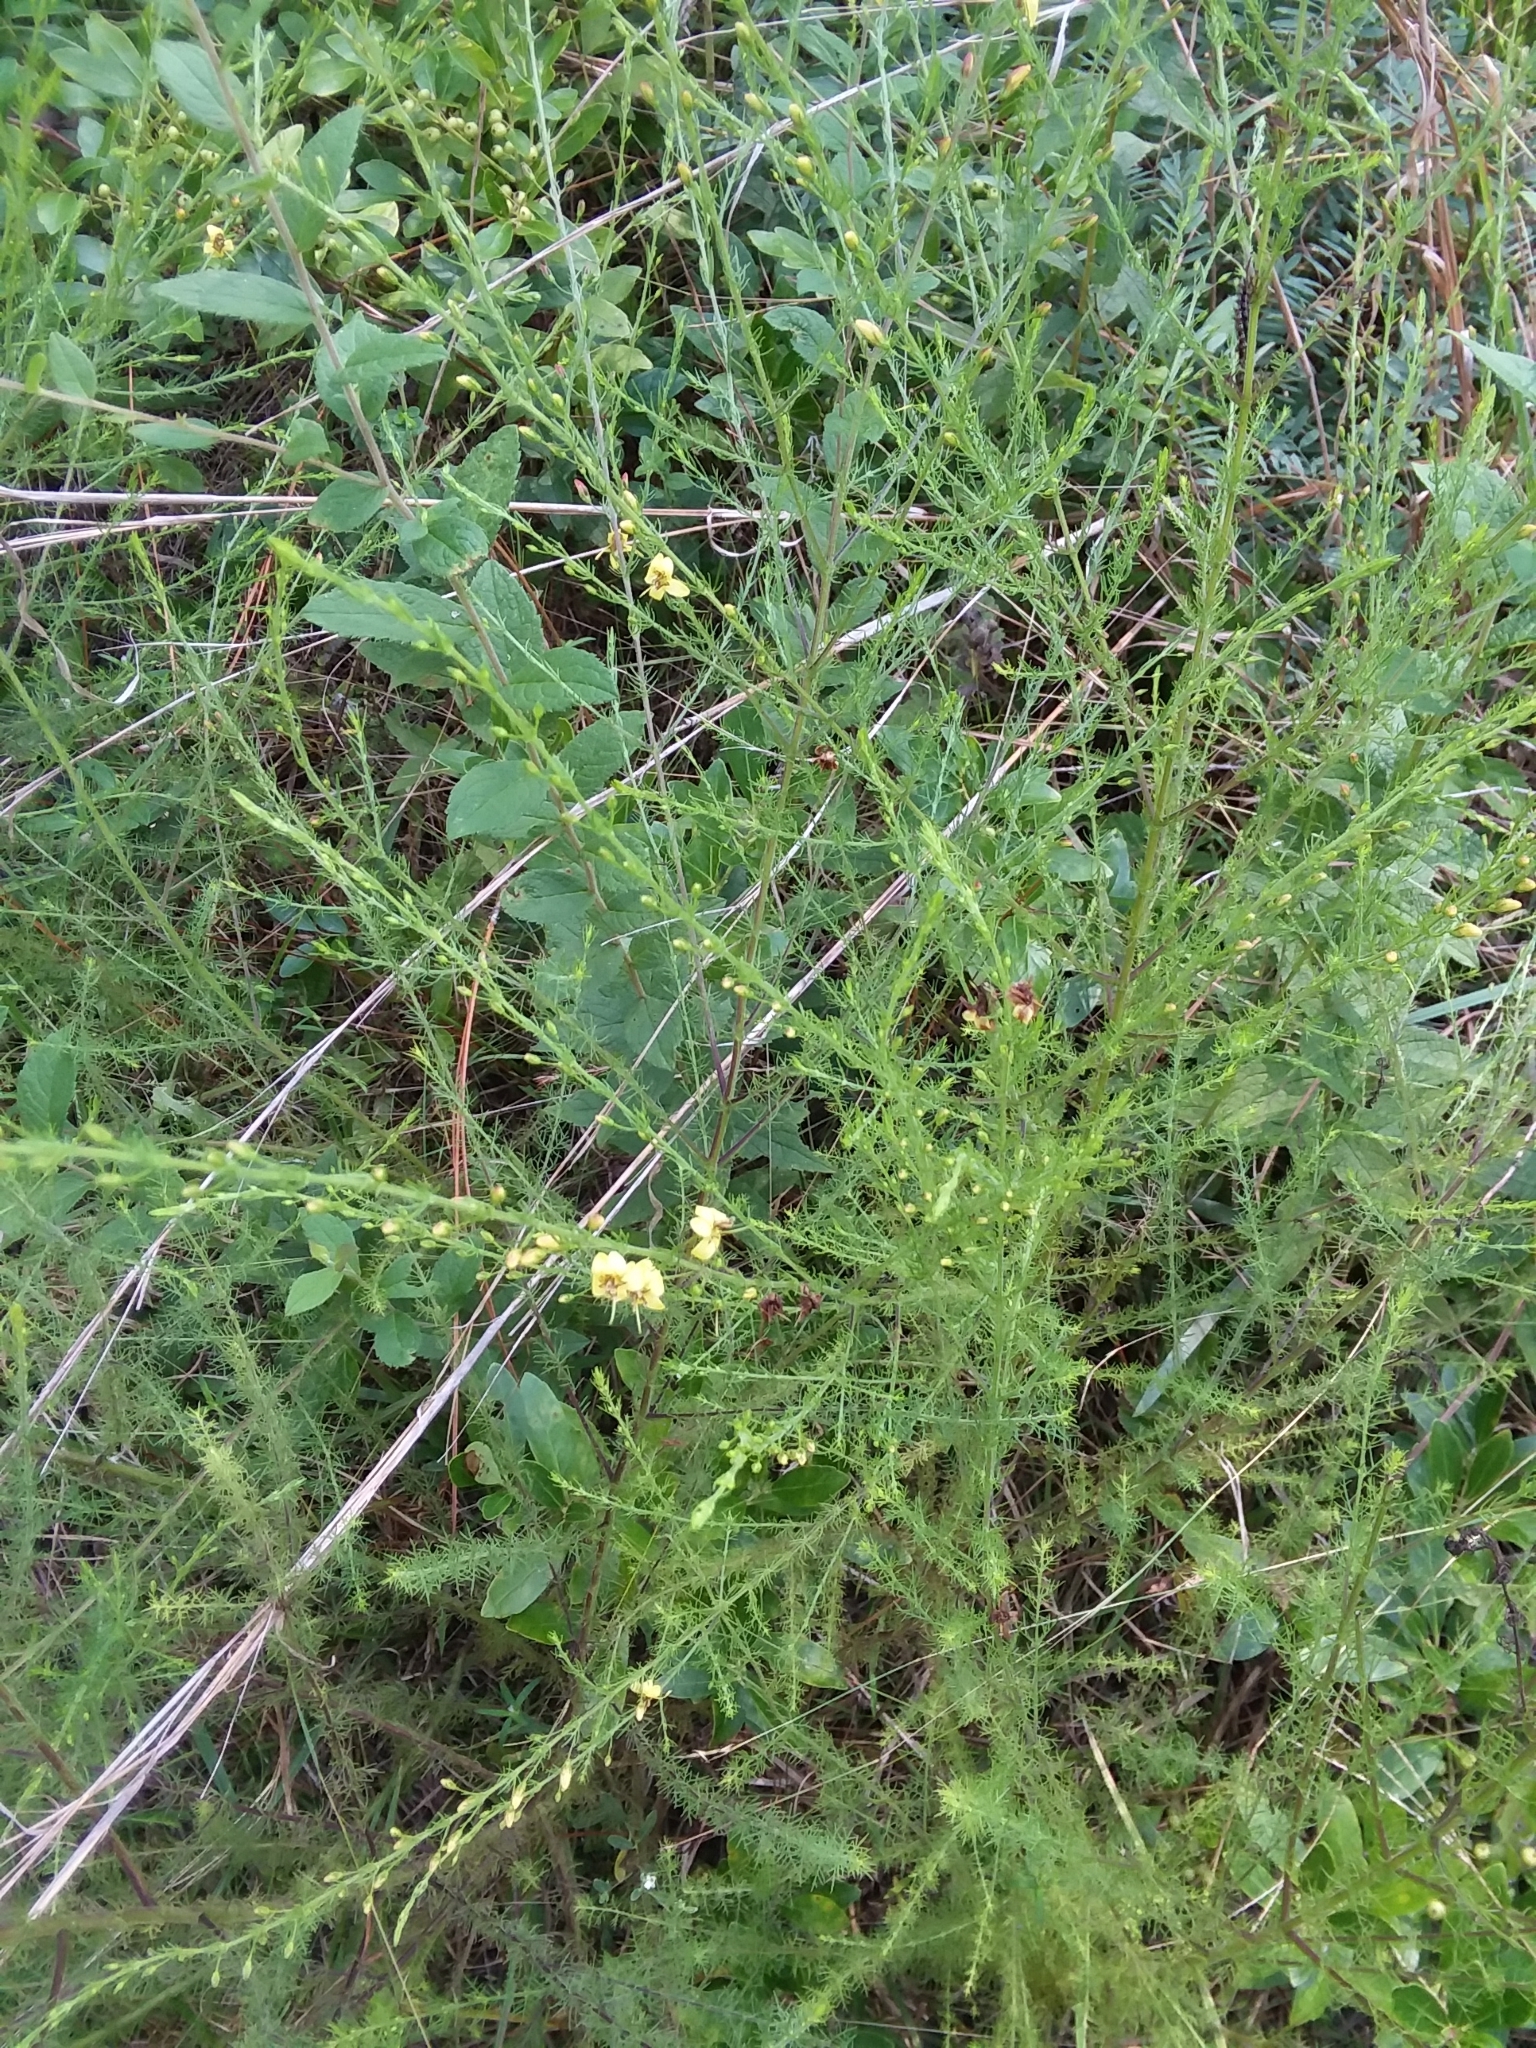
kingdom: Plantae
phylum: Tracheophyta
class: Magnoliopsida
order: Lamiales
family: Orobanchaceae
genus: Seymeria
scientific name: Seymeria cassioides
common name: Yaupon black-senna
